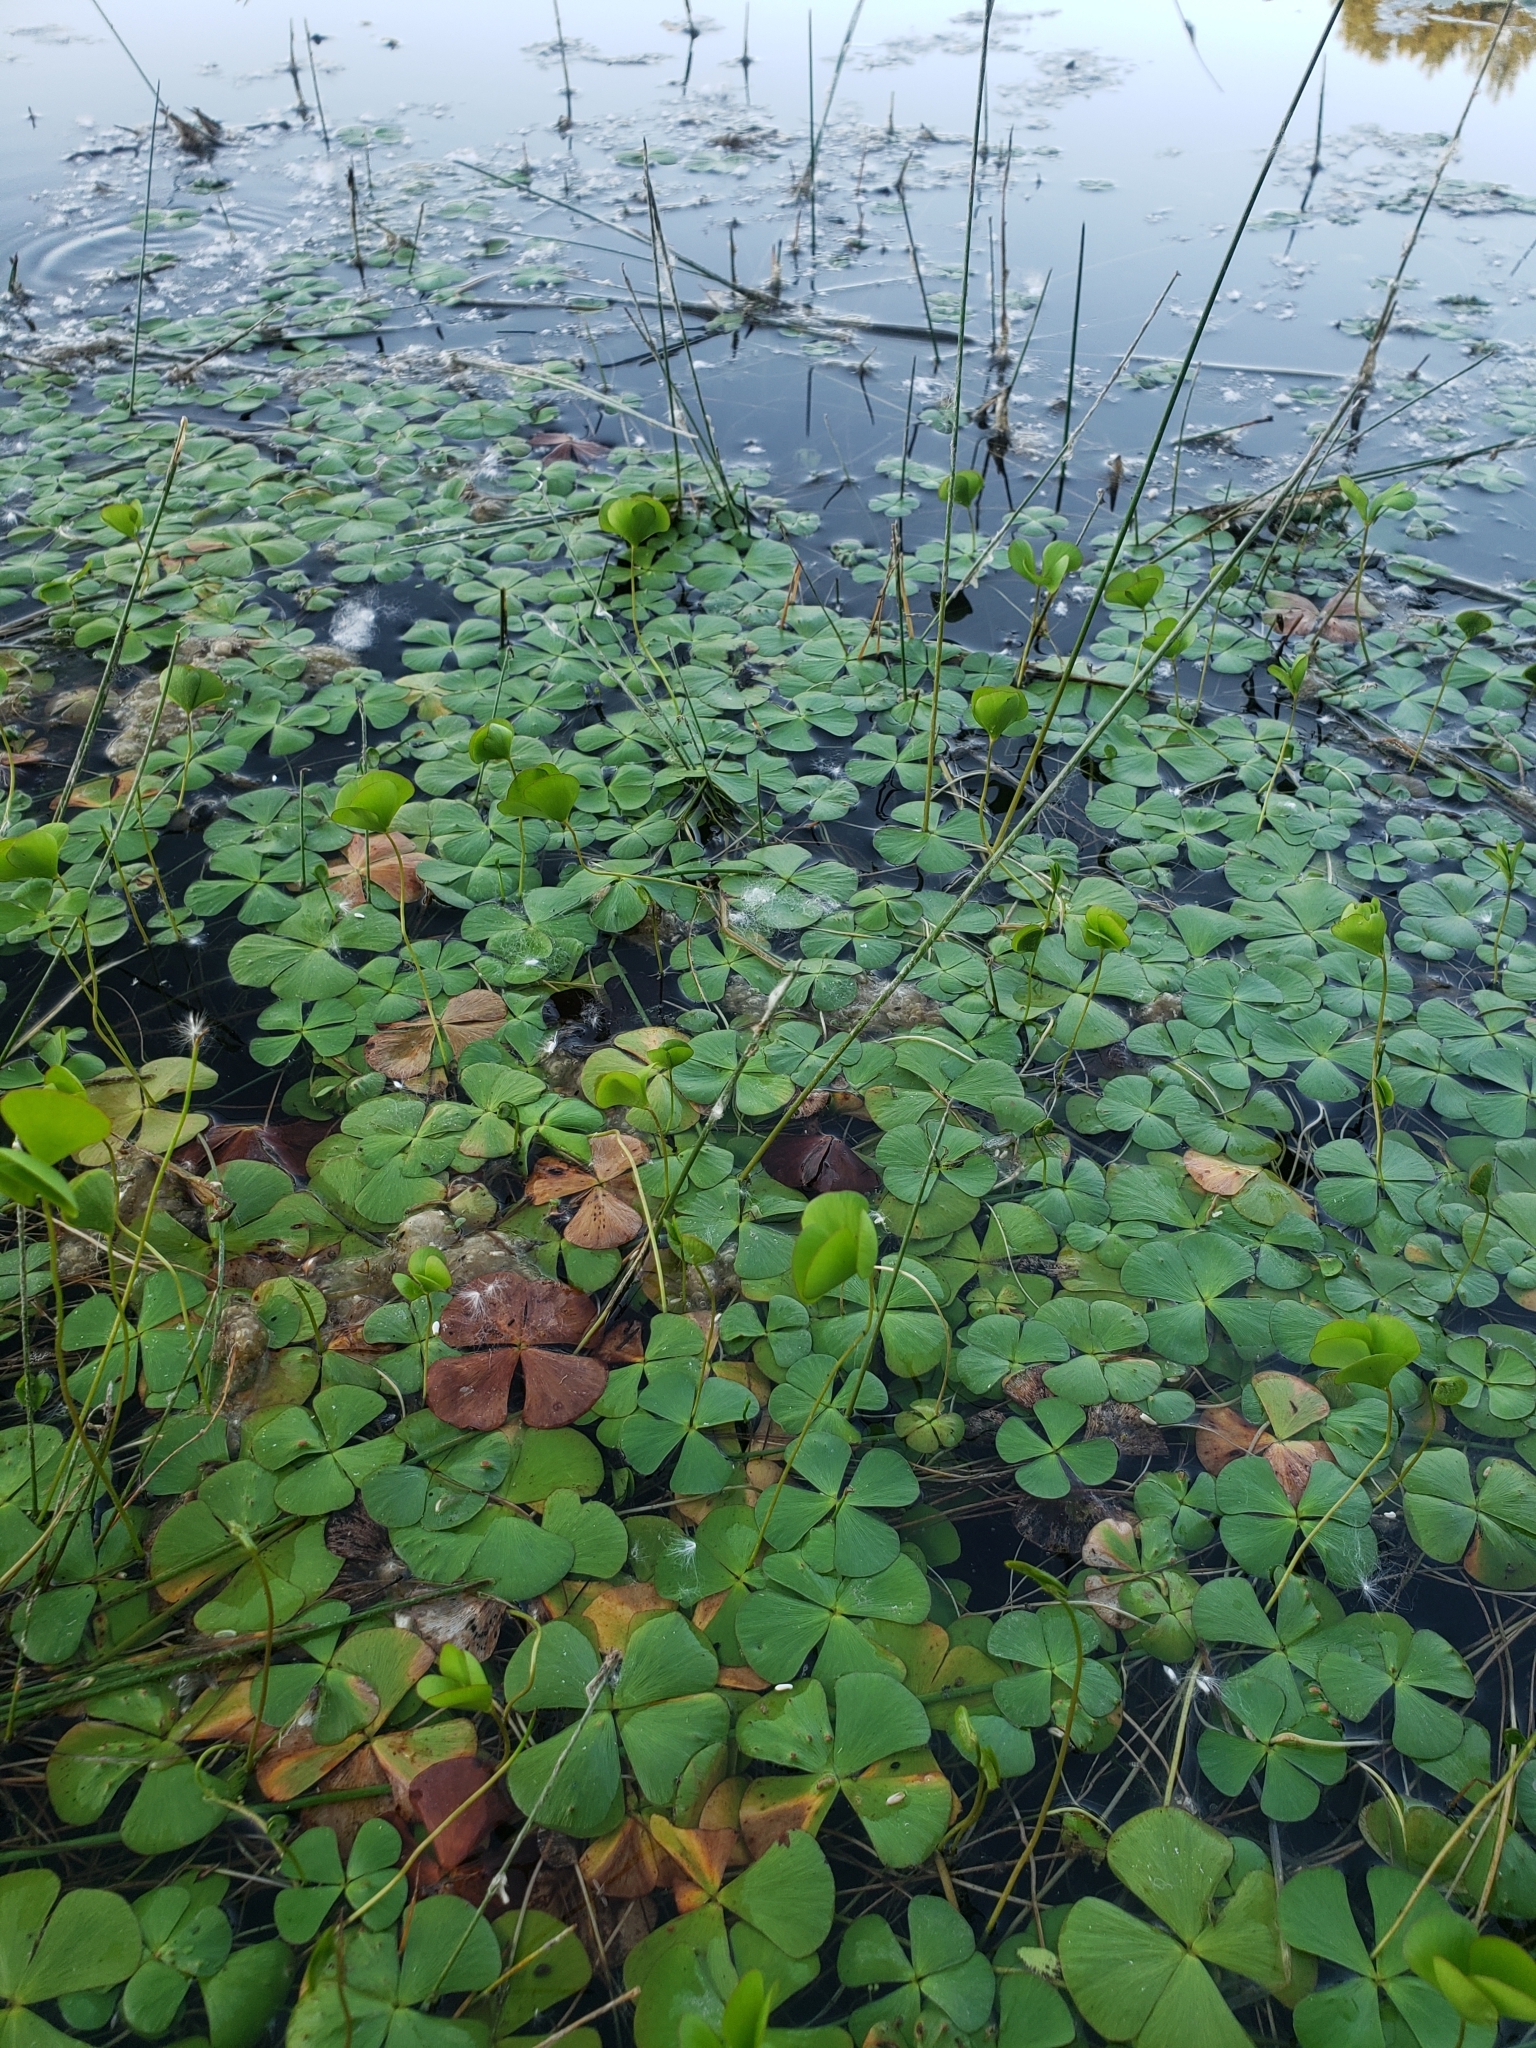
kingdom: Plantae
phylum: Tracheophyta
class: Polypodiopsida
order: Salviniales
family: Marsileaceae
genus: Marsilea
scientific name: Marsilea vestita
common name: Hooked-pepperwort
